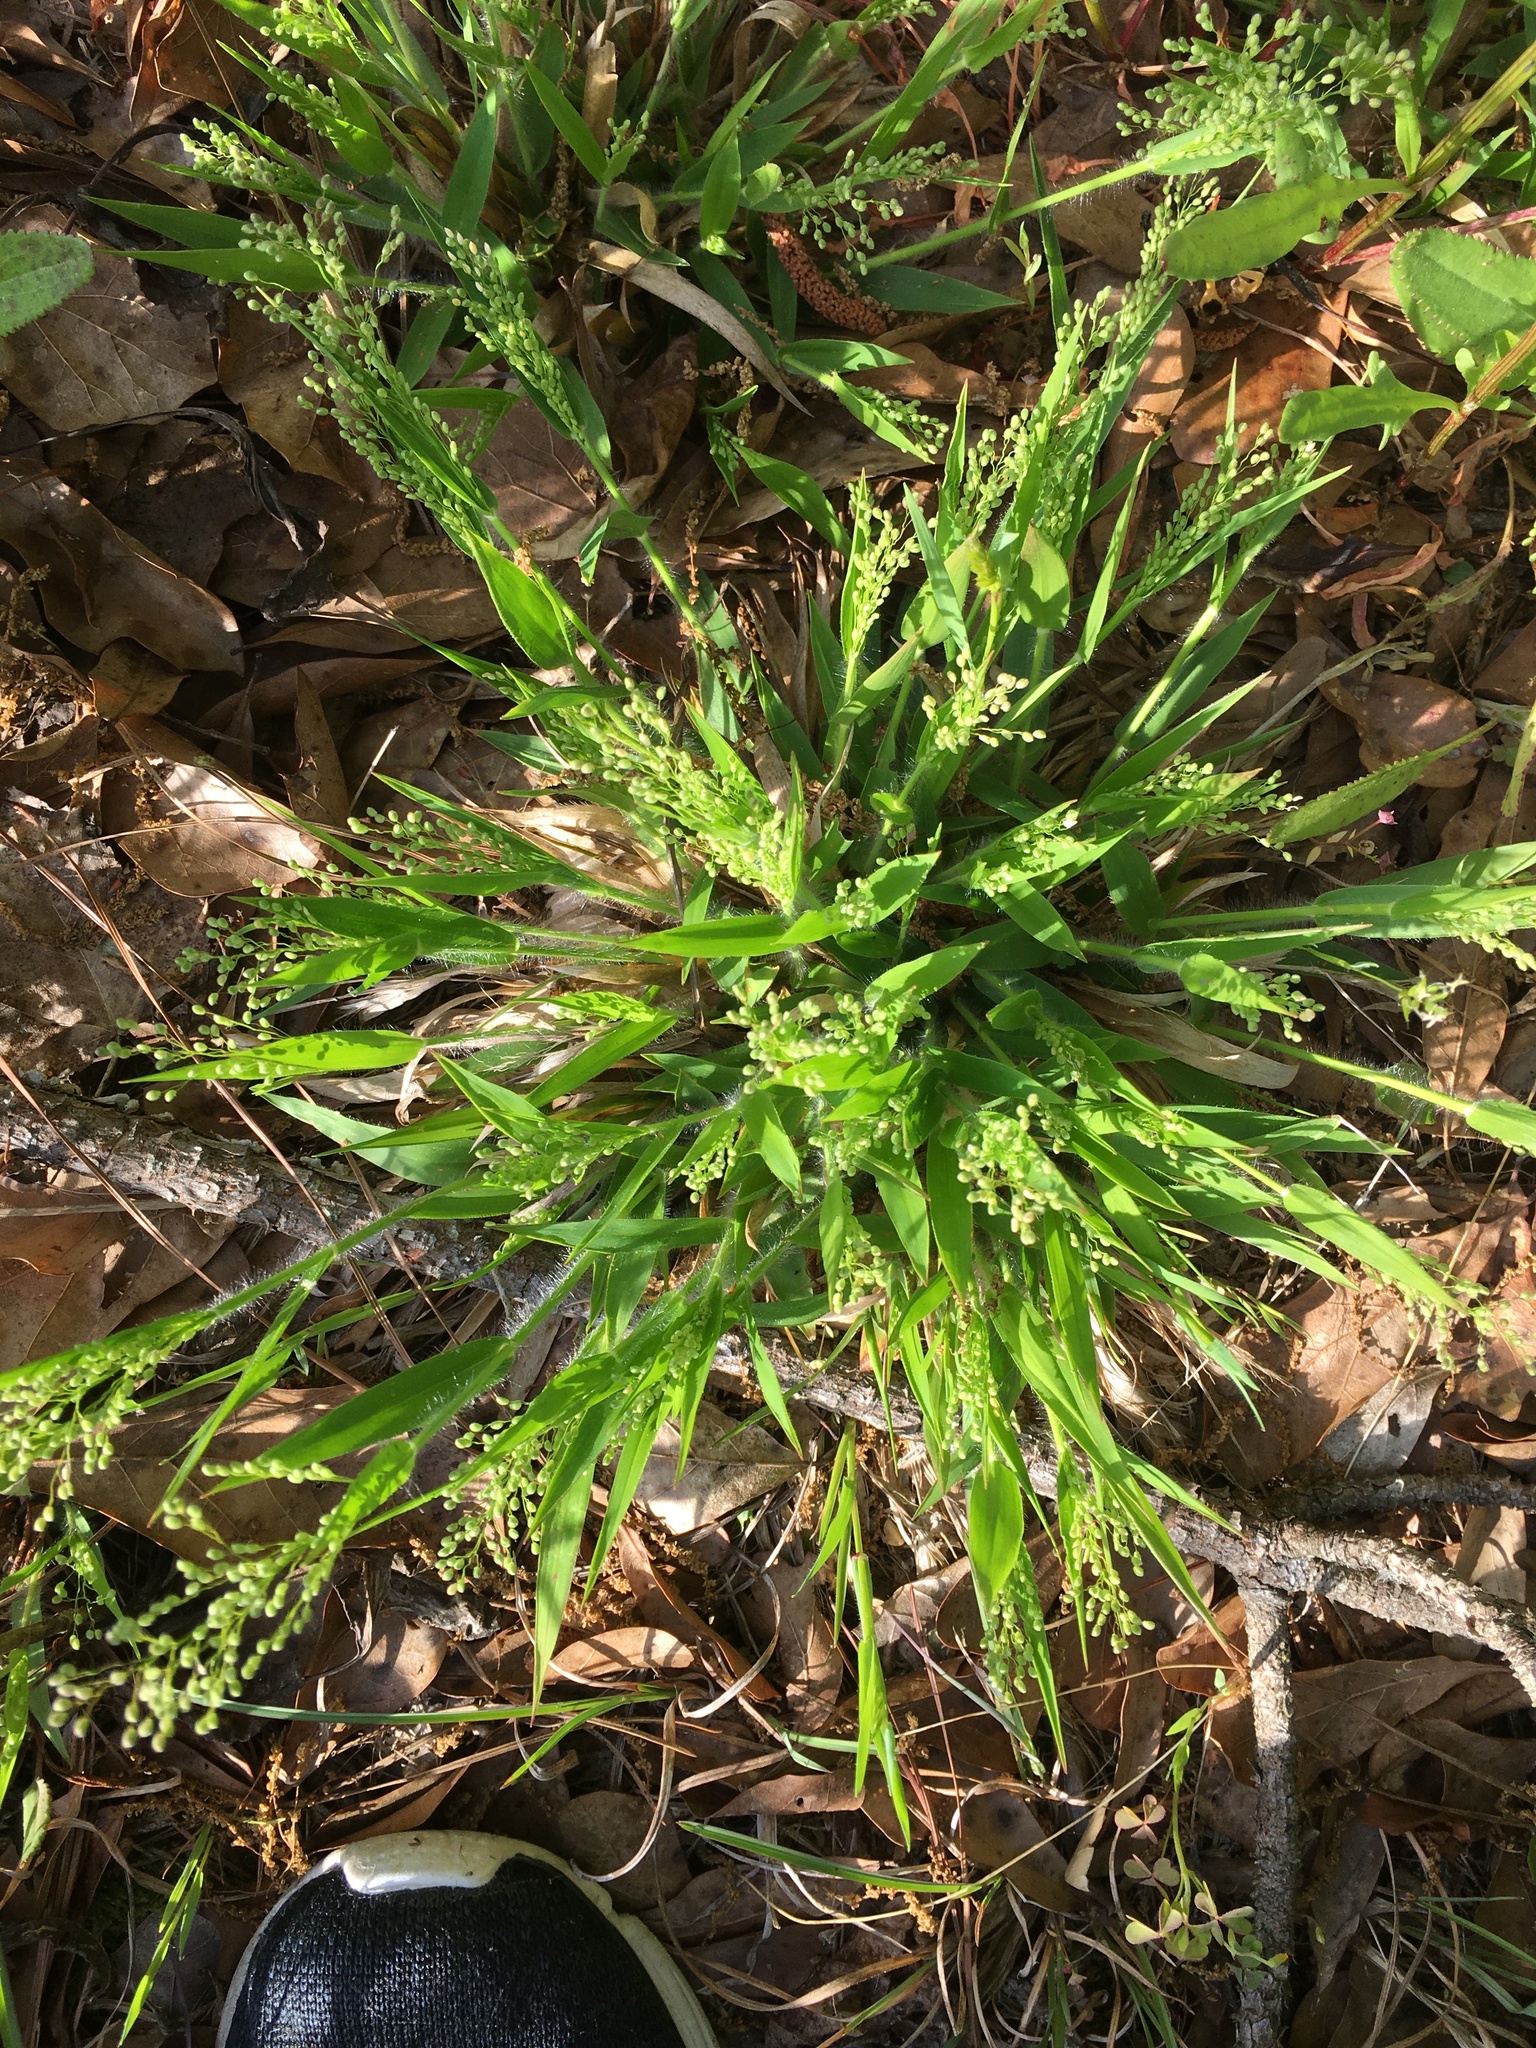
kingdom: Plantae
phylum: Tracheophyta
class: Liliopsida
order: Poales
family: Poaceae
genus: Dichanthelium
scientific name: Dichanthelium laxiflorum
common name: Soft-tuft panic grass
